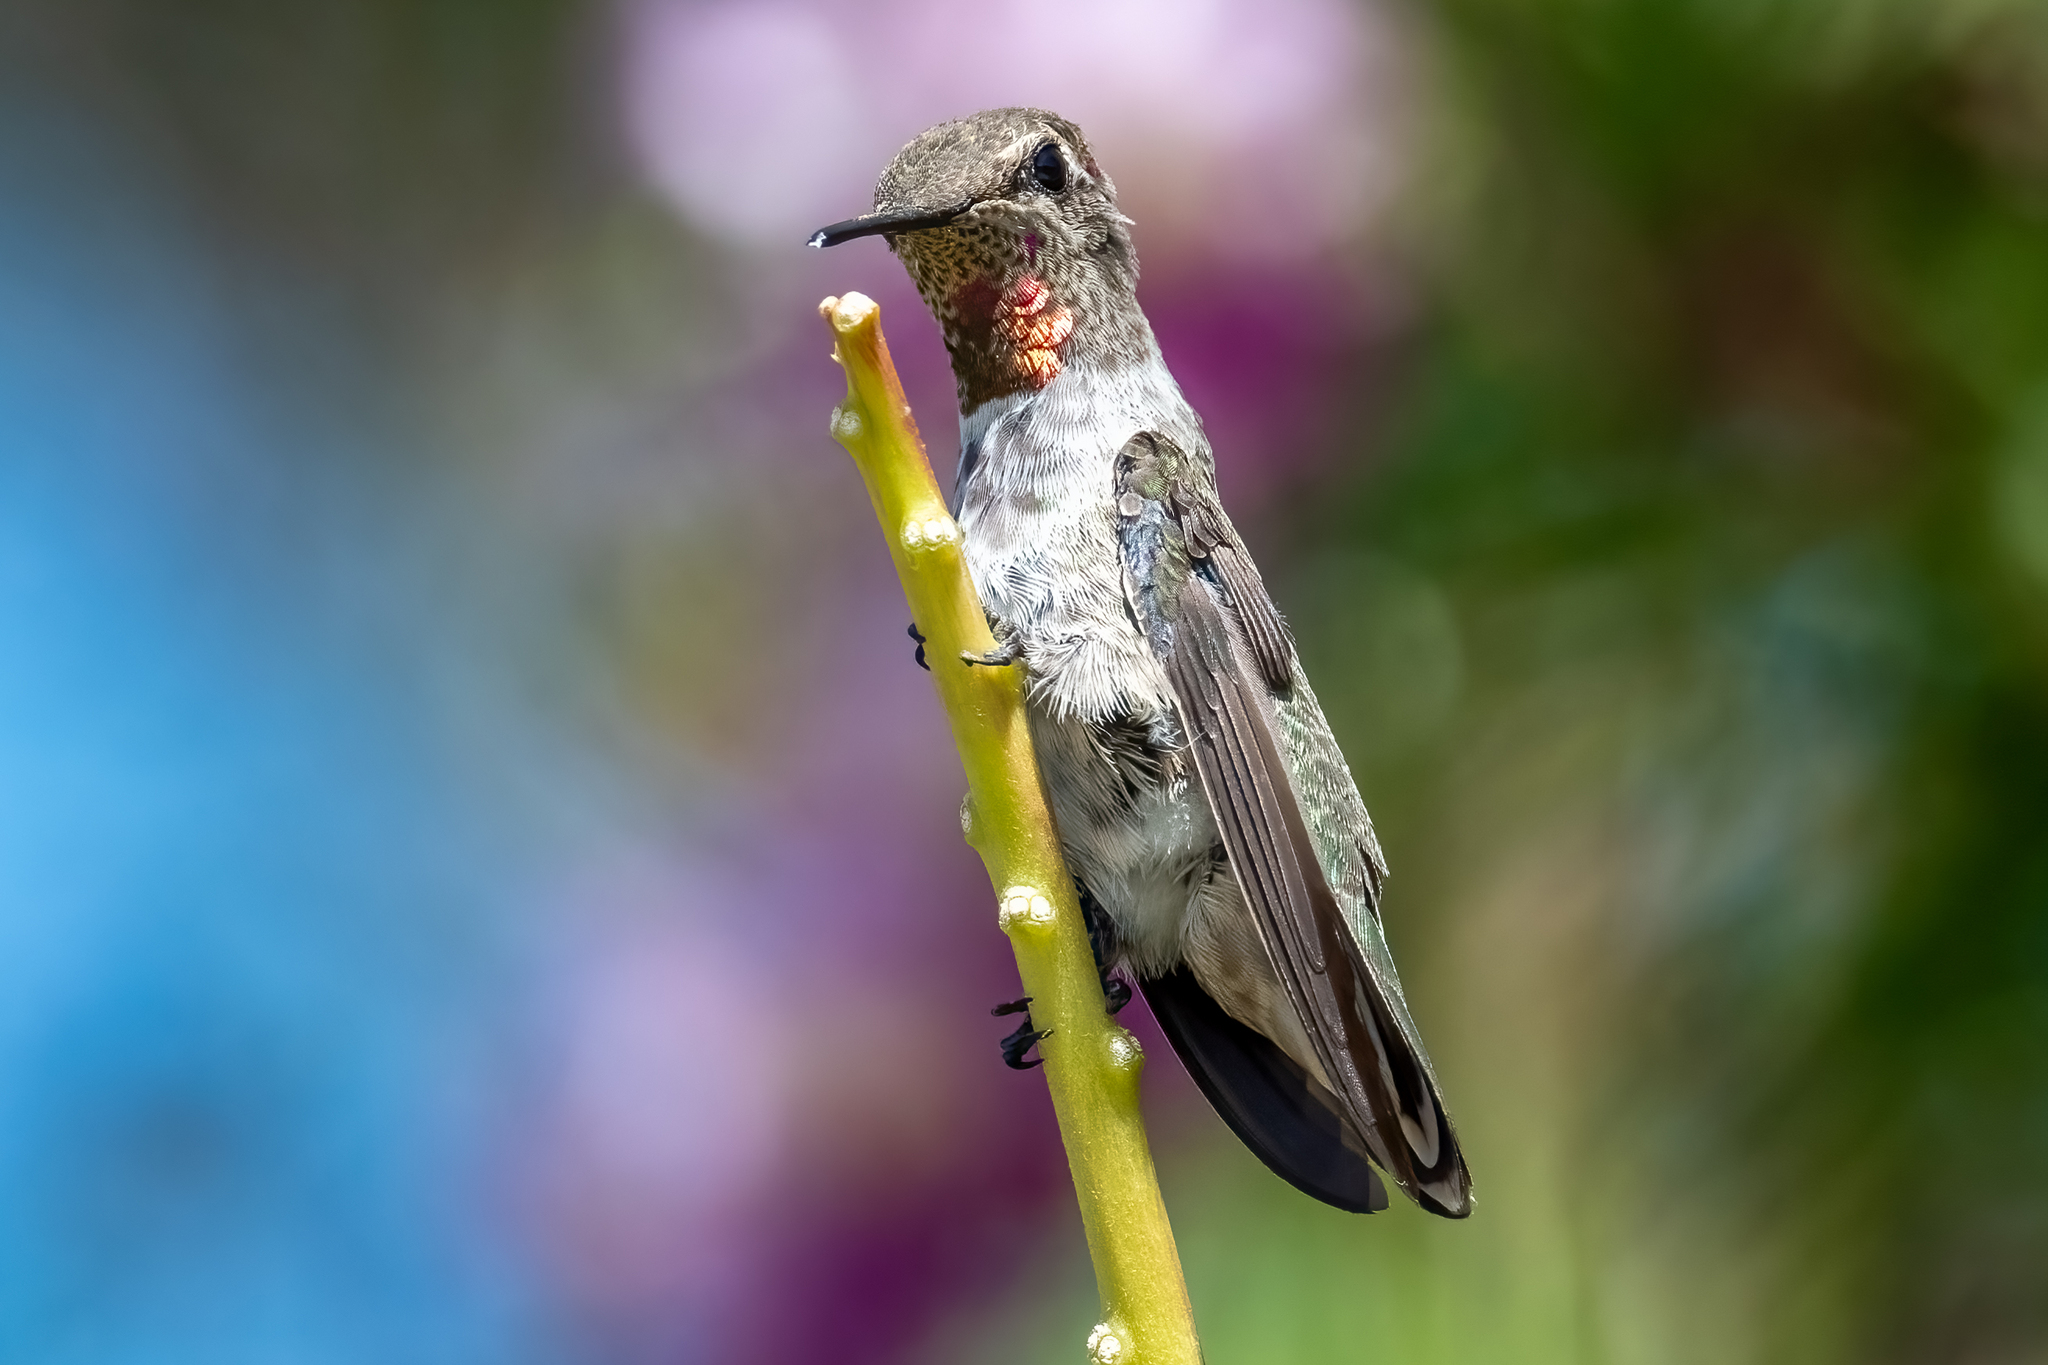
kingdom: Animalia
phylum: Chordata
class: Aves
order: Apodiformes
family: Trochilidae
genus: Calypte
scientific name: Calypte anna
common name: Anna's hummingbird
